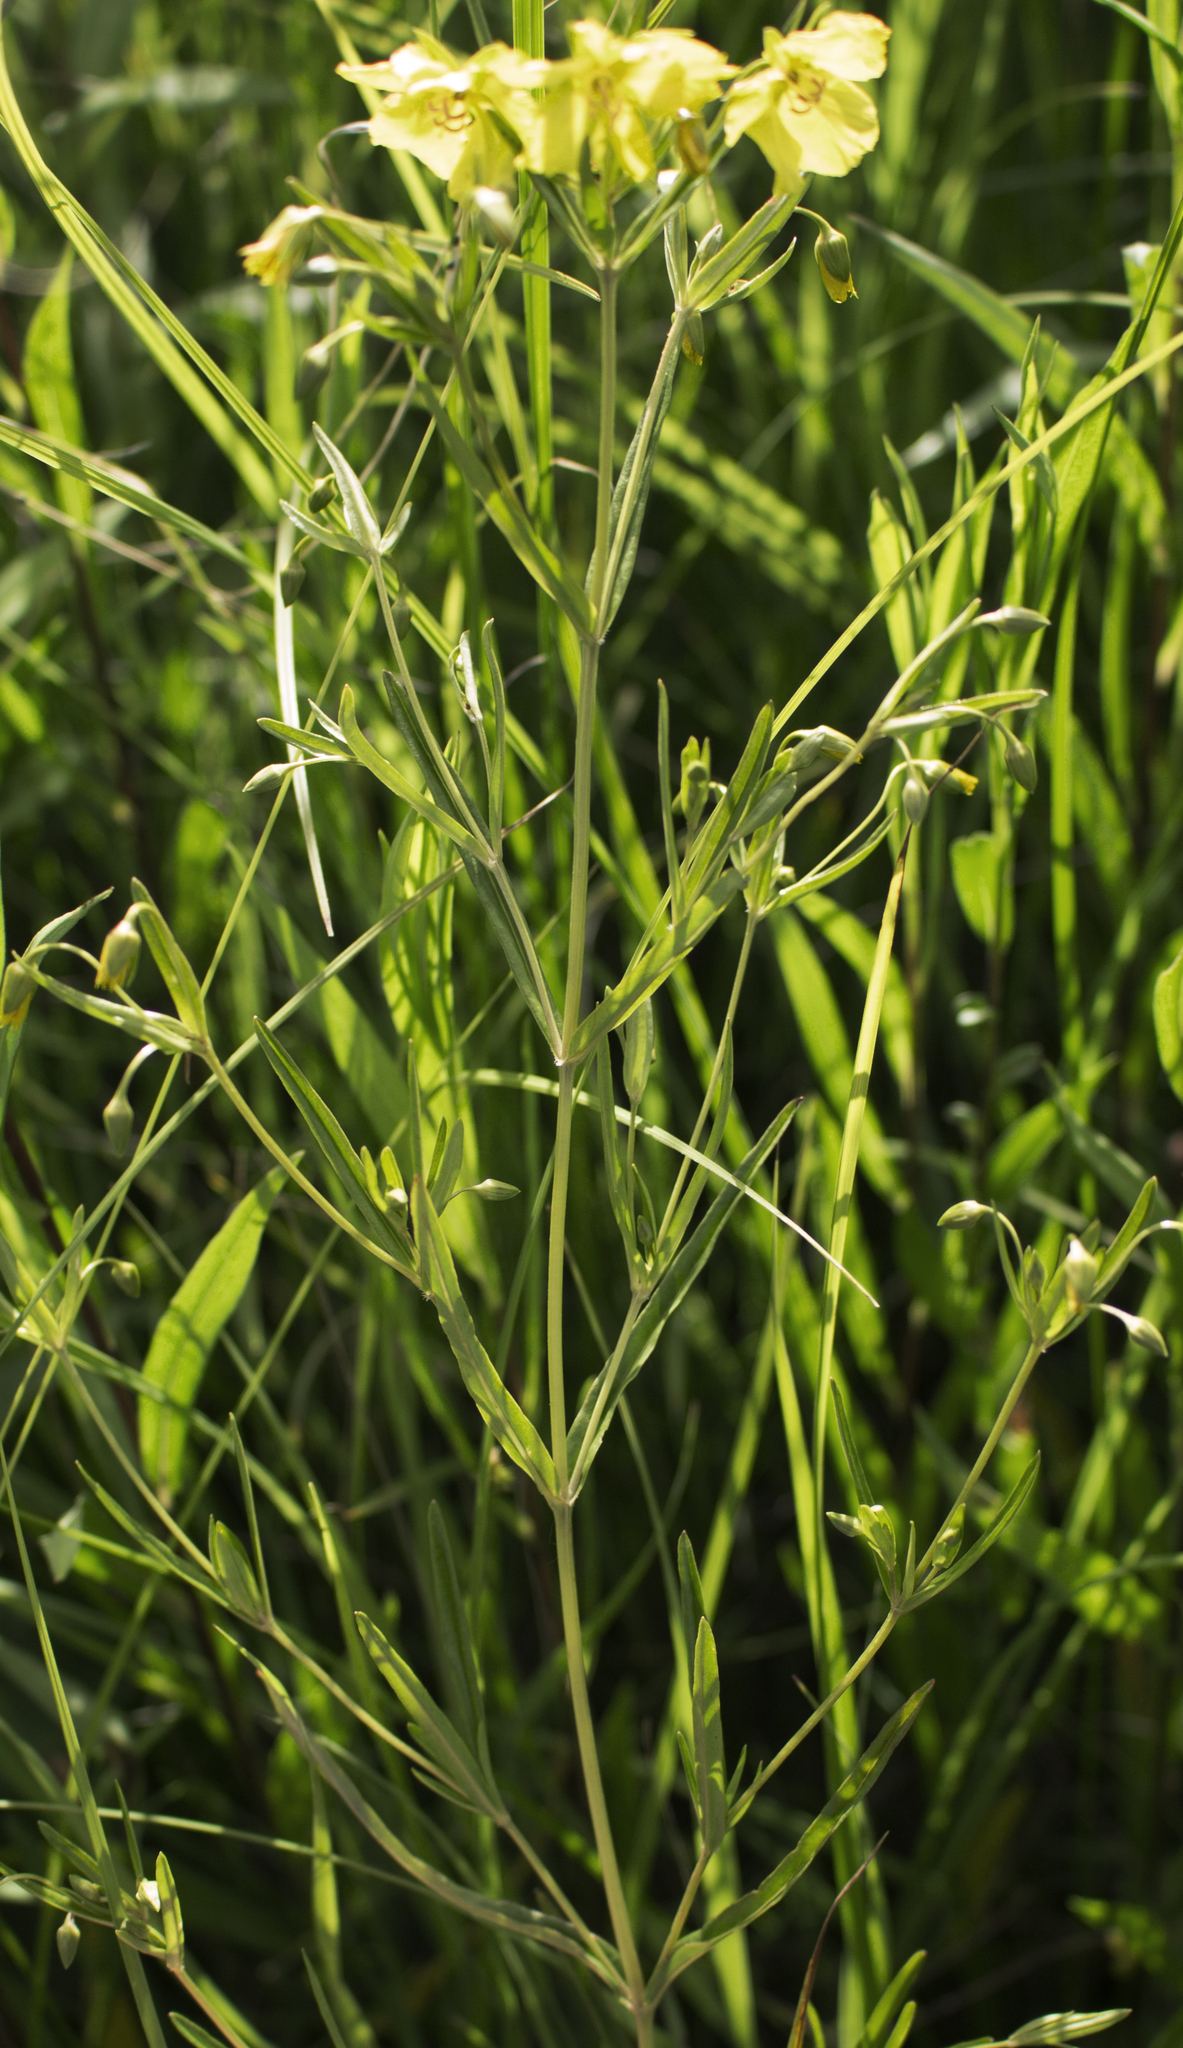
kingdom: Plantae
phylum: Tracheophyta
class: Magnoliopsida
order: Ericales
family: Primulaceae
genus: Lysimachia
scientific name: Lysimachia quadriflora
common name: Four-flowered loosestrife
